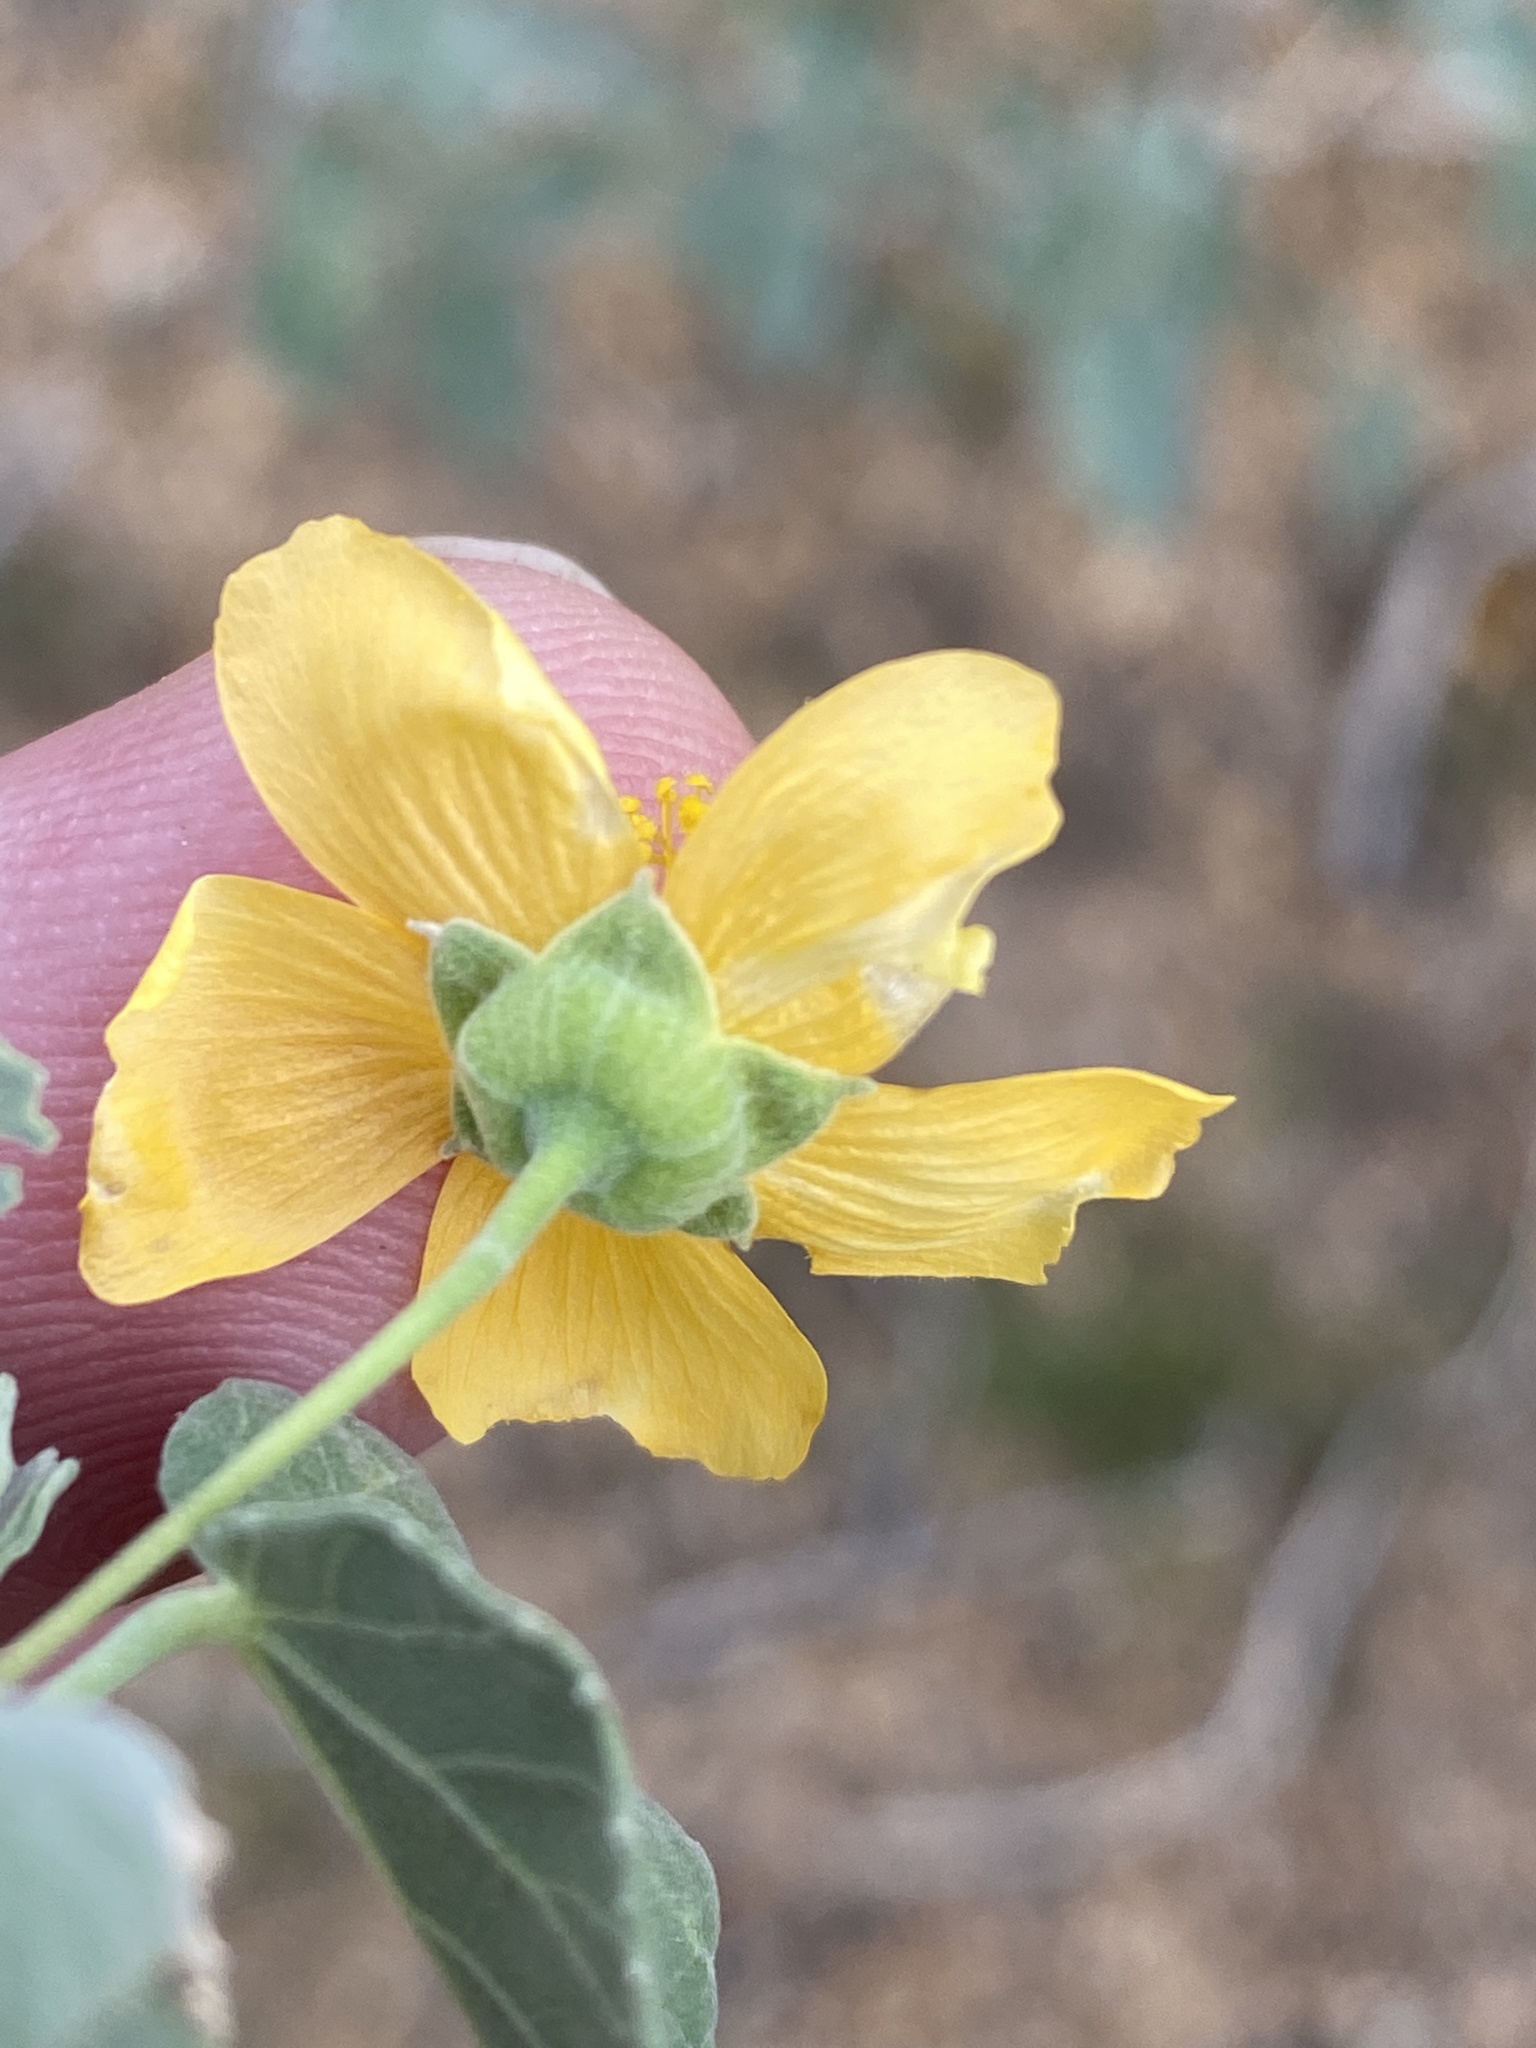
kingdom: Plantae
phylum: Tracheophyta
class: Magnoliopsida
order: Malvales
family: Malvaceae
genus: Abutilon
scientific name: Abutilon fruticosum
